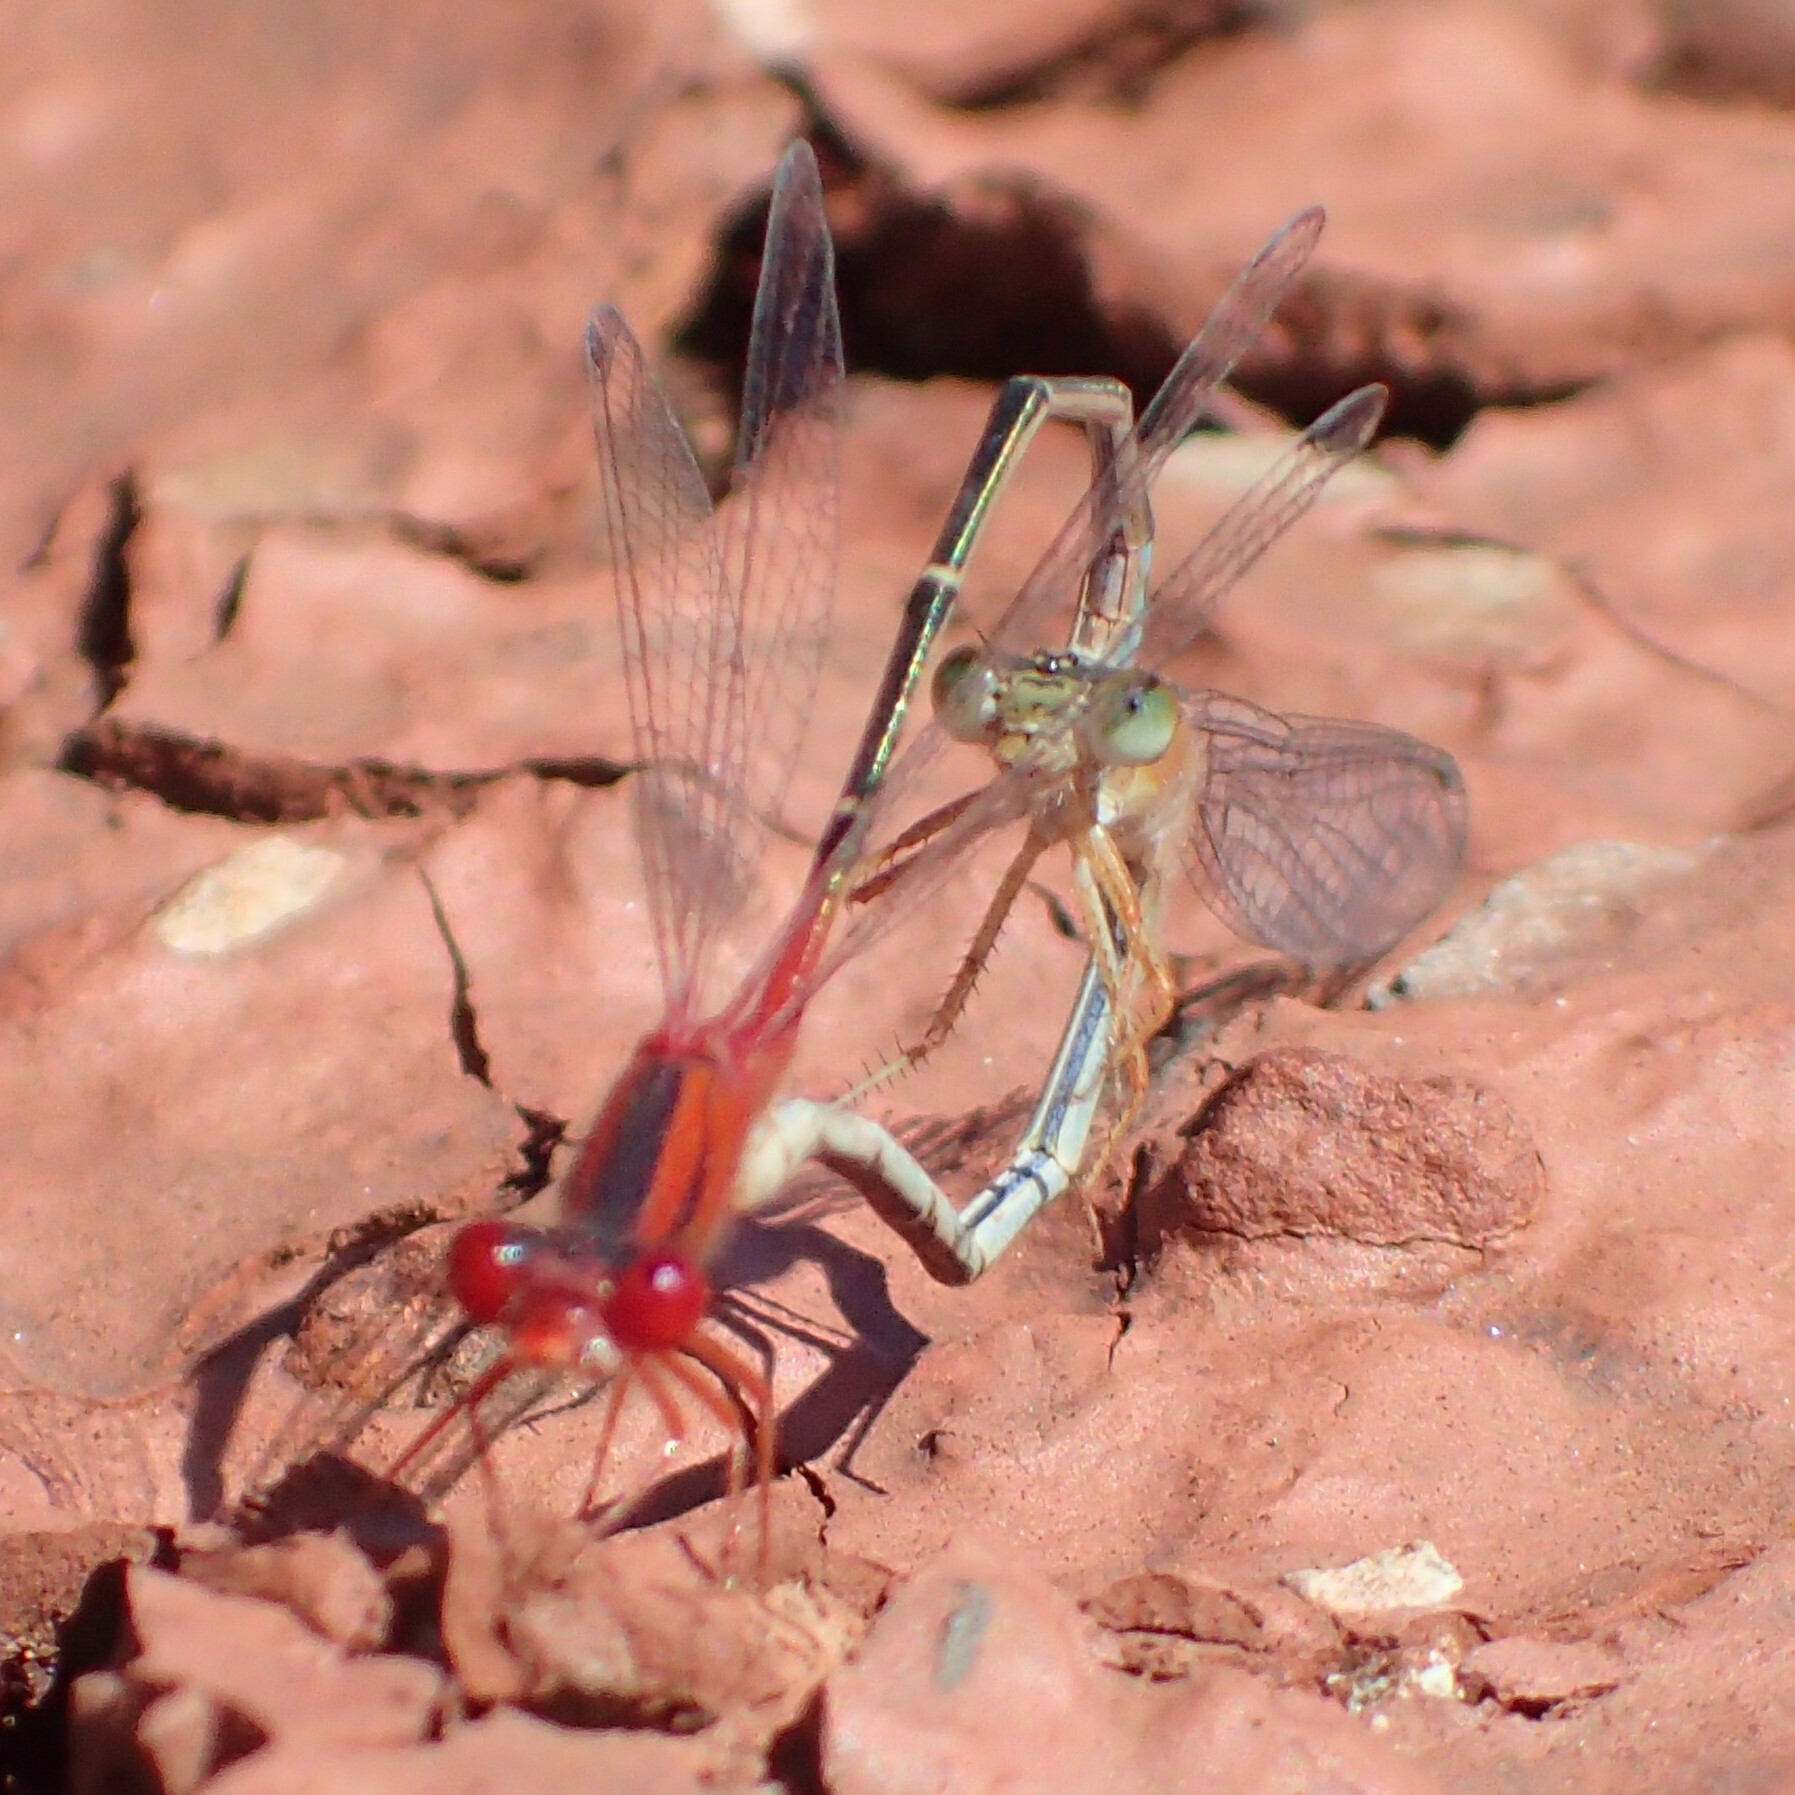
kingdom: Animalia
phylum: Arthropoda
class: Insecta
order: Odonata
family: Coenagrionidae
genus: Xanthagrion
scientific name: Xanthagrion erythroneurum
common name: Red and blue damsel
